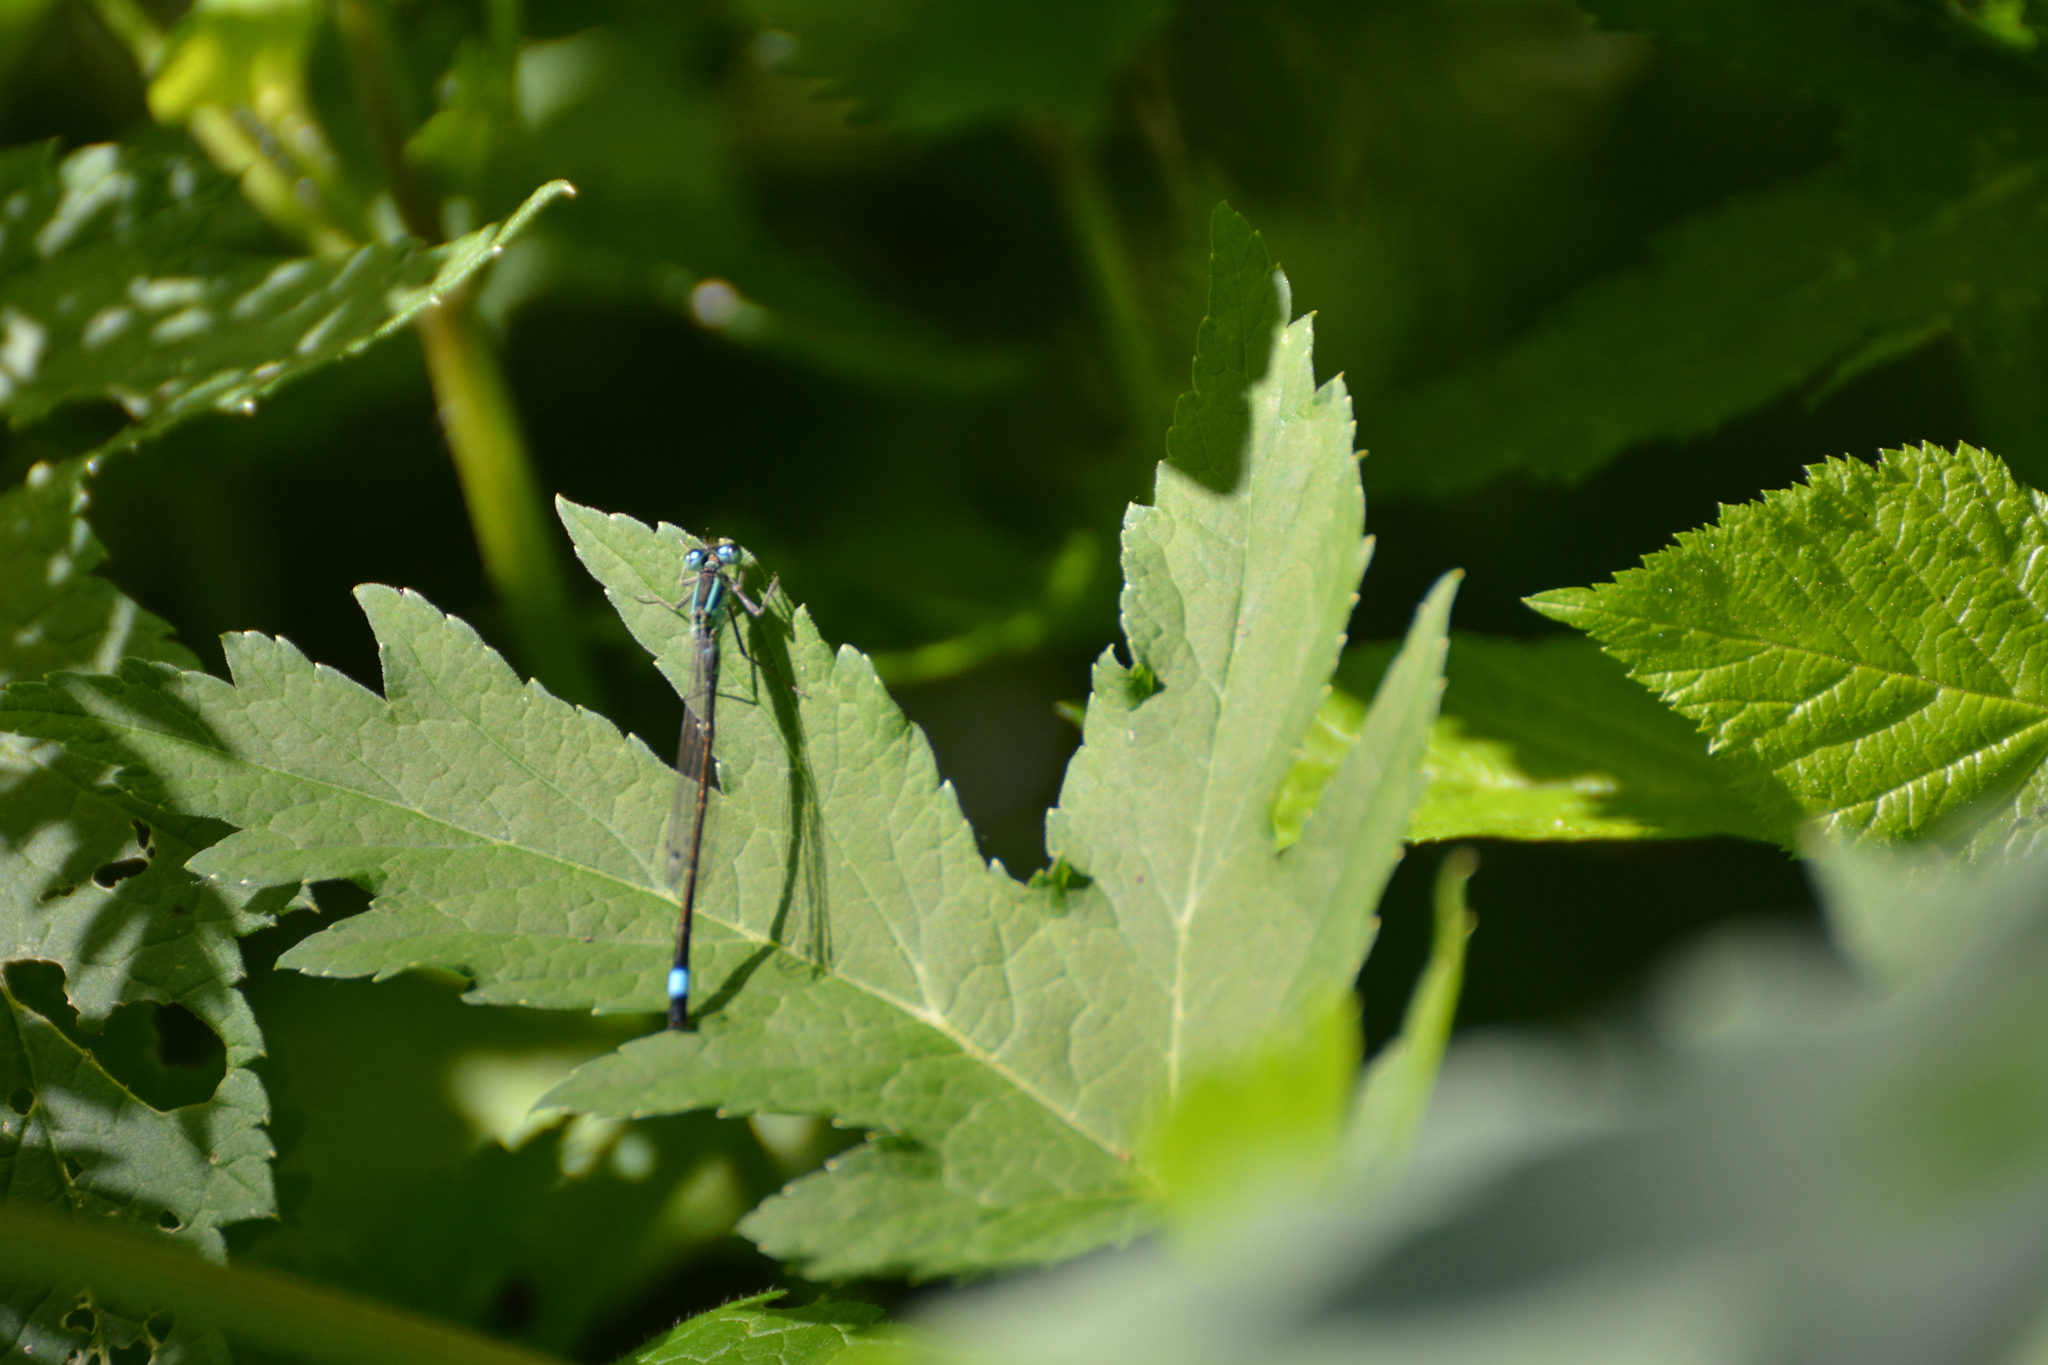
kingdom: Animalia
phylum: Arthropoda
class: Insecta
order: Odonata
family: Coenagrionidae
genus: Ischnura
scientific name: Ischnura elegans
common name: Blue-tailed damselfly
